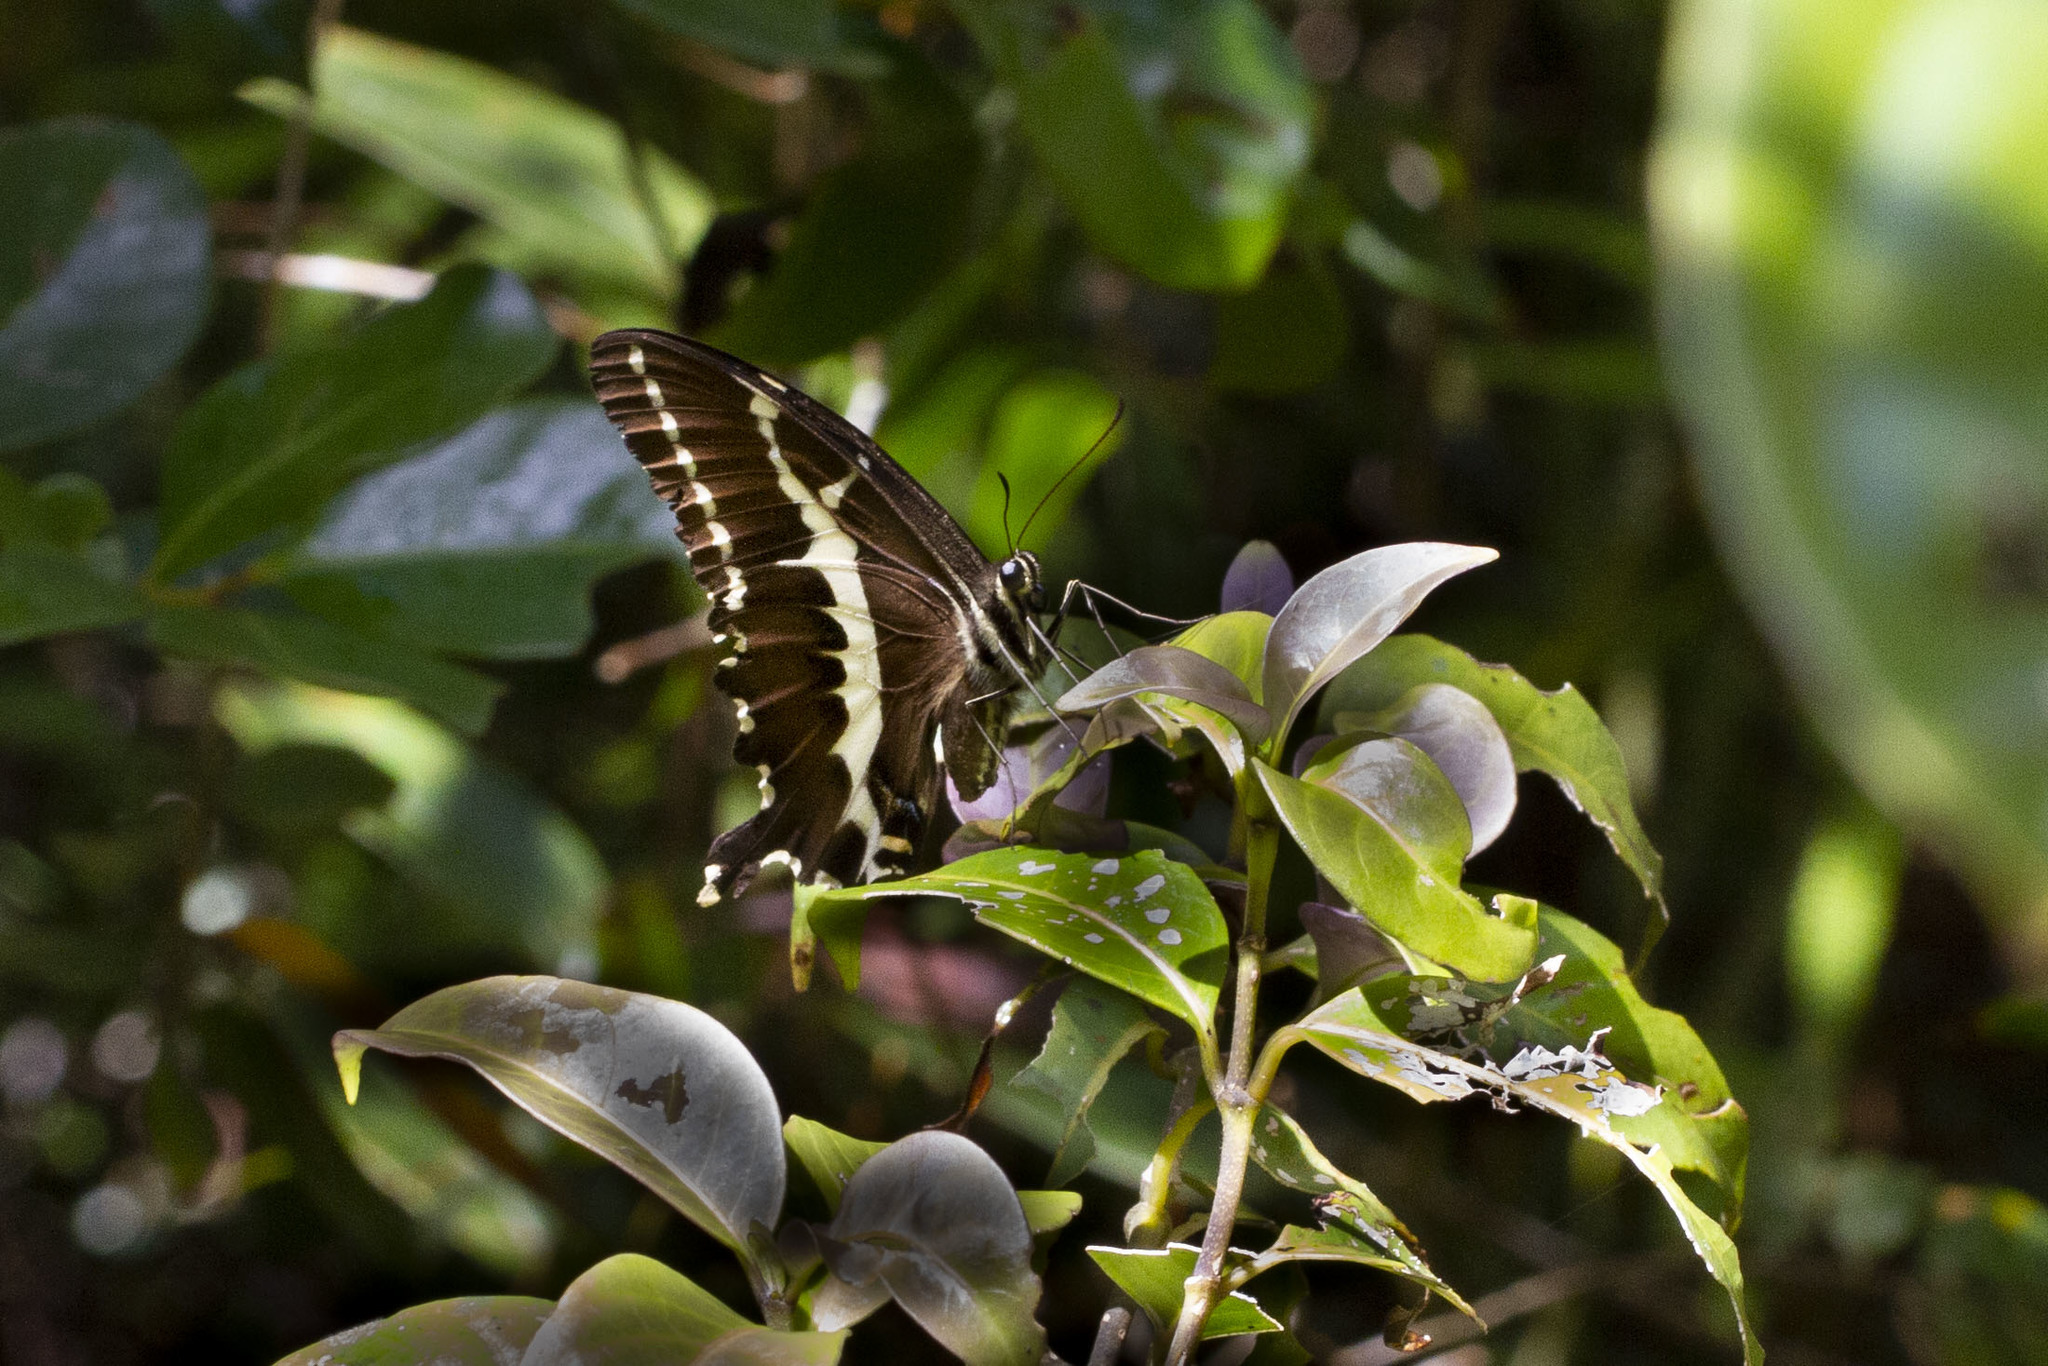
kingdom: Animalia
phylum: Arthropoda
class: Insecta
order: Lepidoptera
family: Papilionidae
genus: Papilio
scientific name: Papilio delalandei
